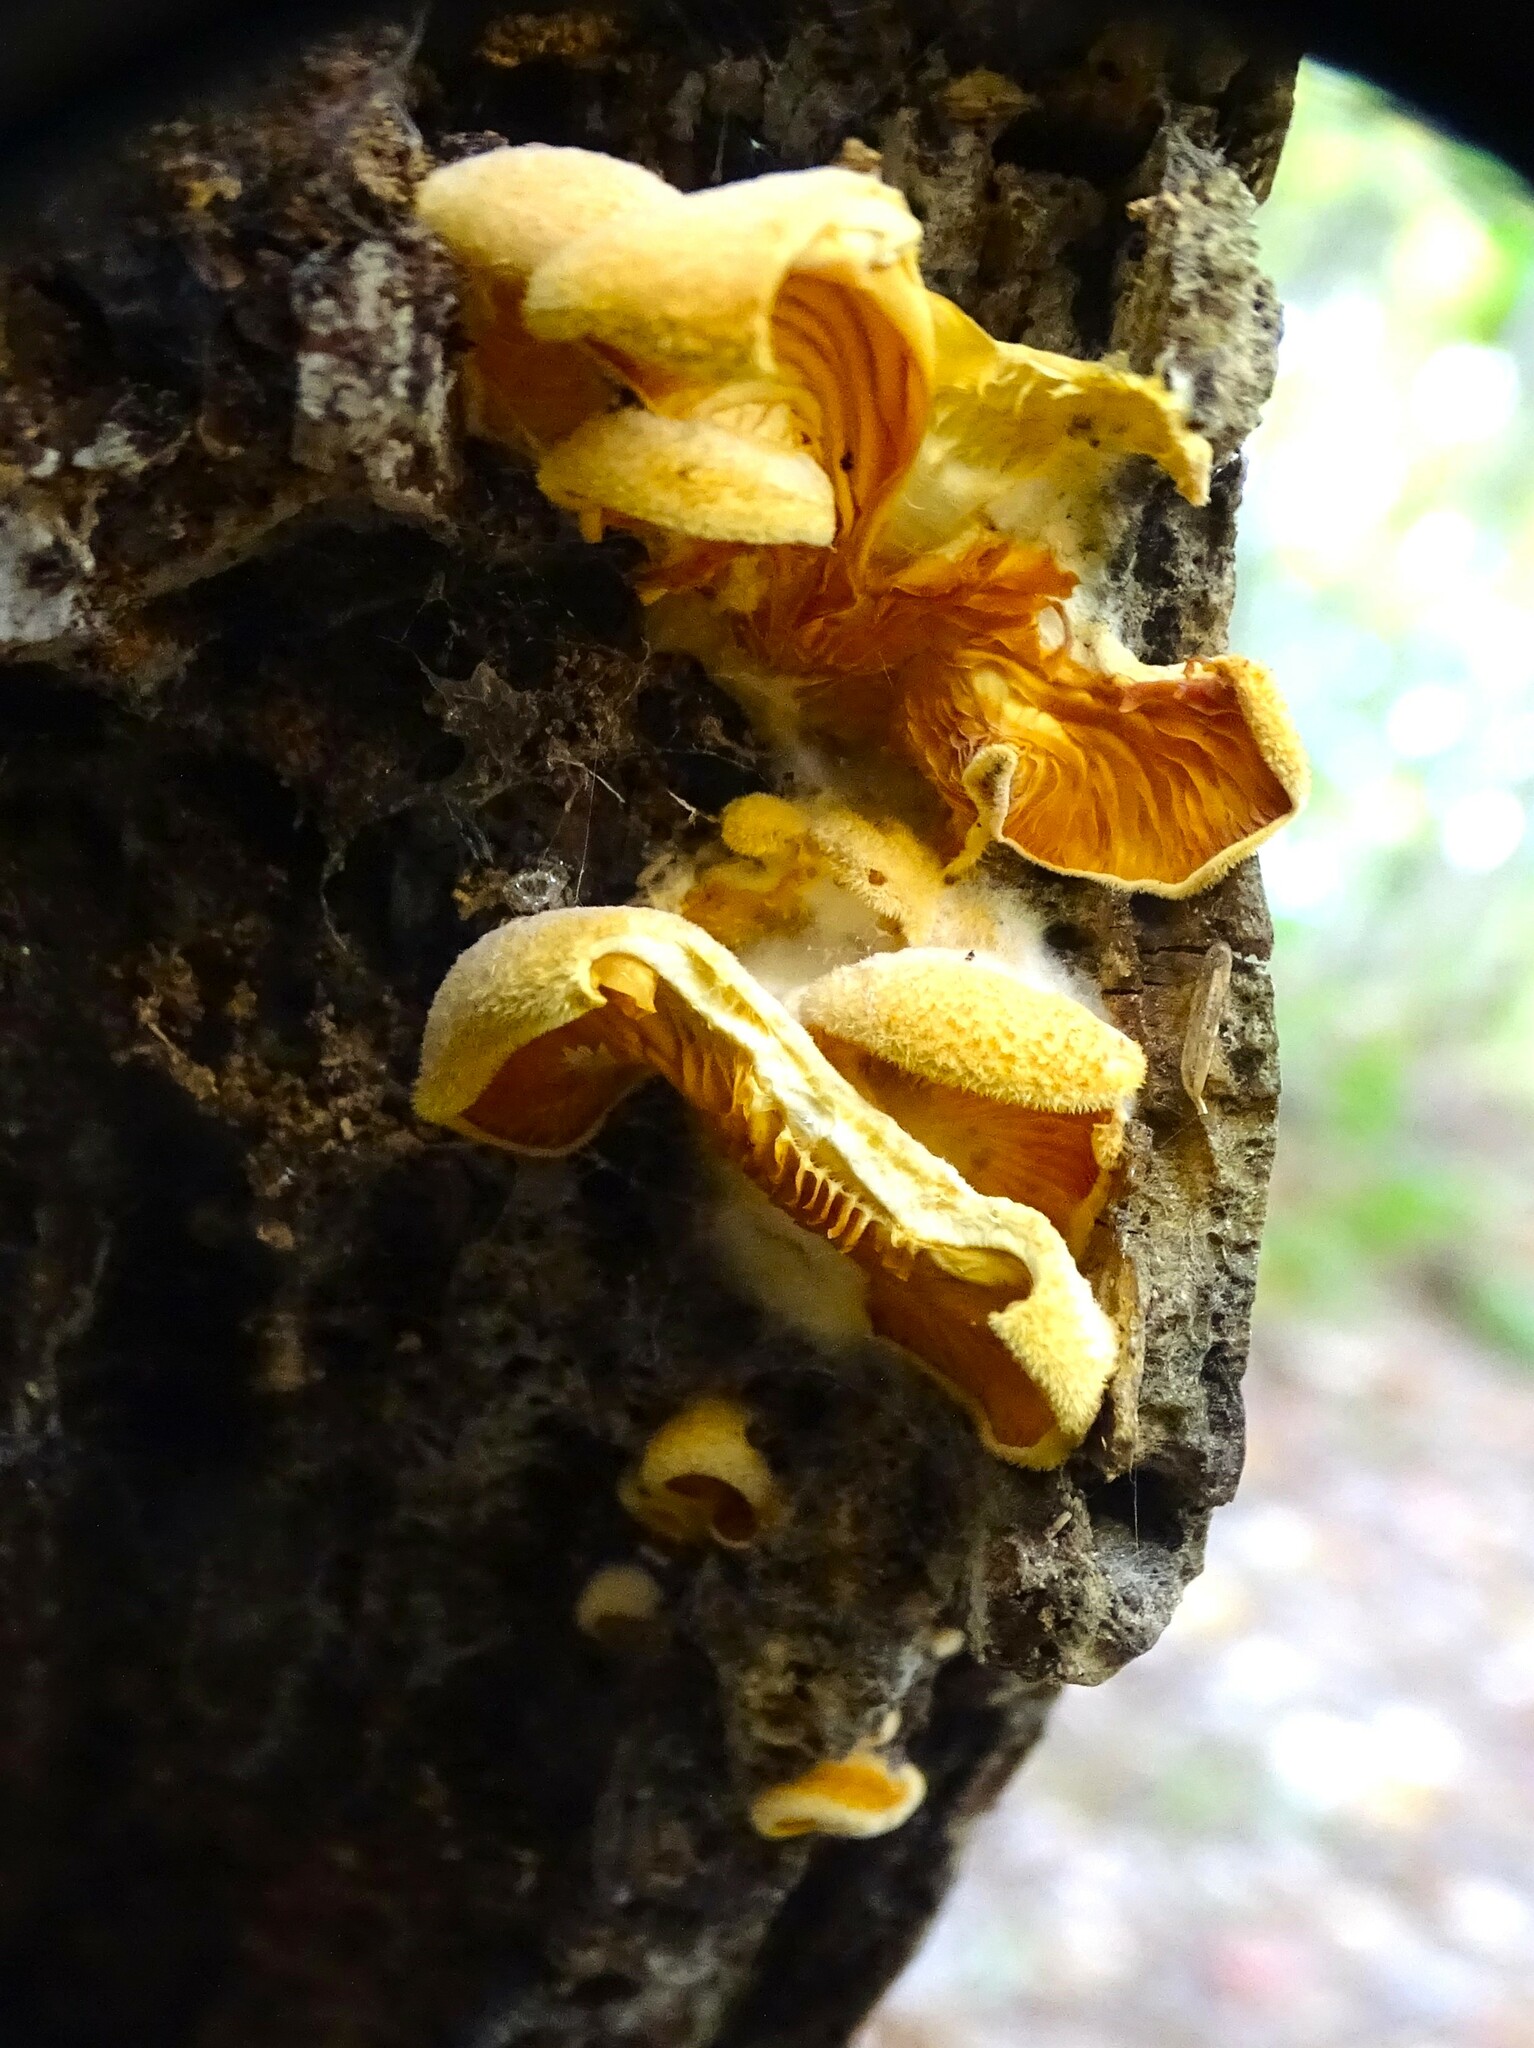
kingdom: Fungi
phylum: Basidiomycota
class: Agaricomycetes
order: Agaricales
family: Phyllotopsidaceae
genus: Phyllotopsis
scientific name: Phyllotopsis nidulans
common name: Orange mock oyster
